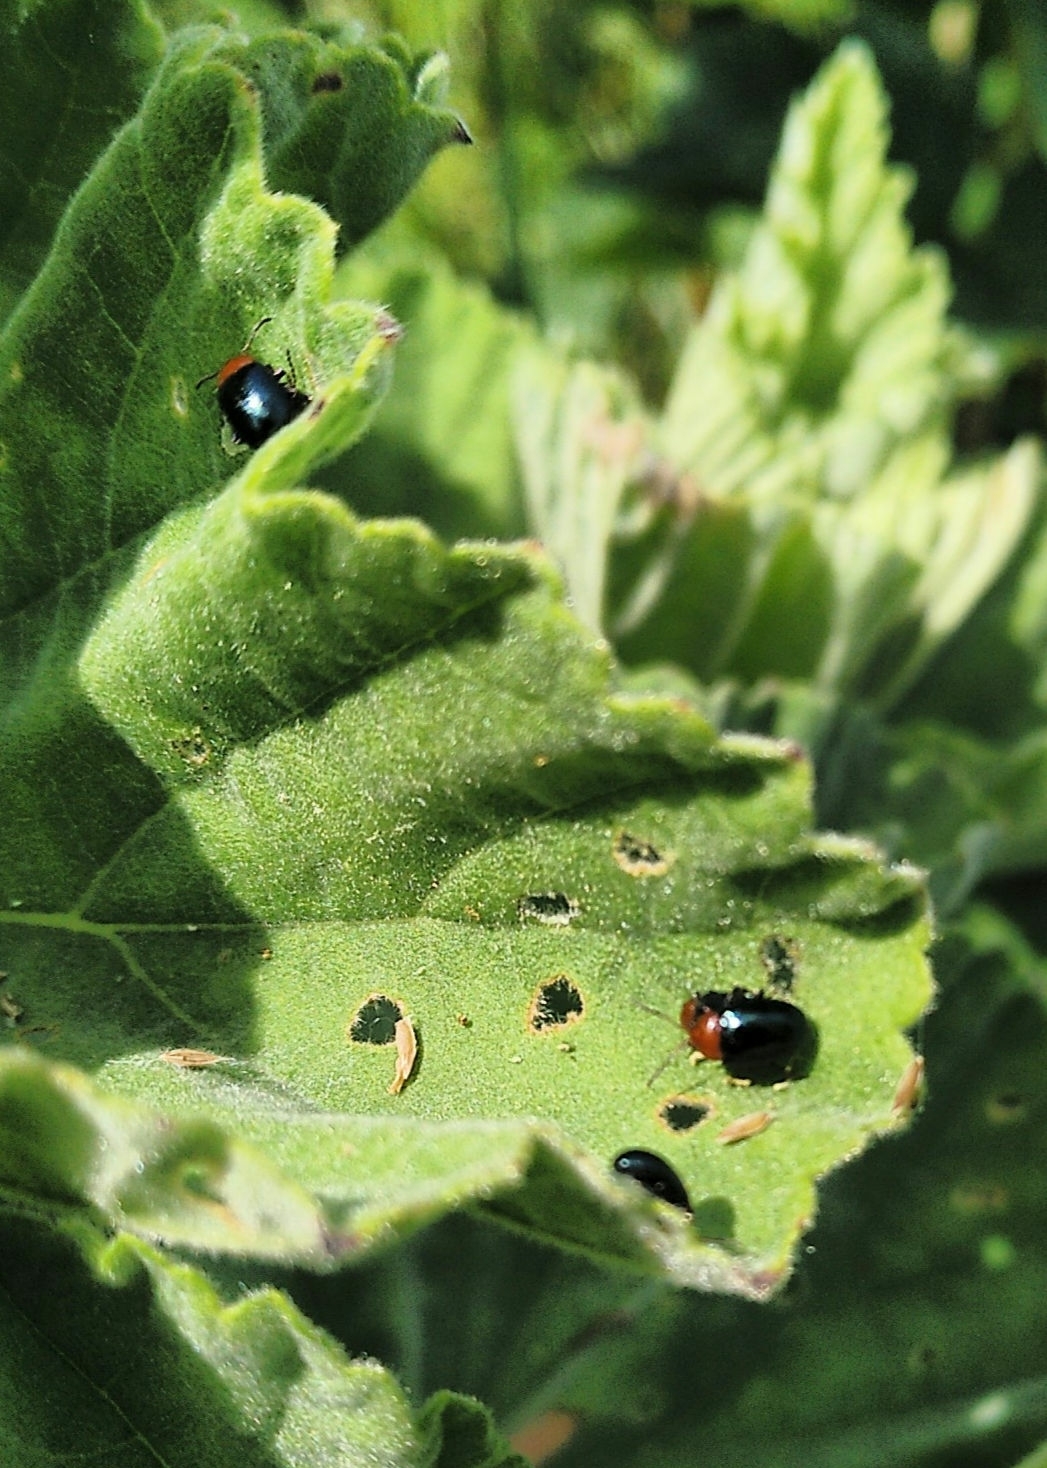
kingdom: Animalia
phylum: Arthropoda
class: Insecta
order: Coleoptera
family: Chrysomelidae
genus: Podagrica
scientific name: Podagrica fuscipes
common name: Mallow flea beetle
